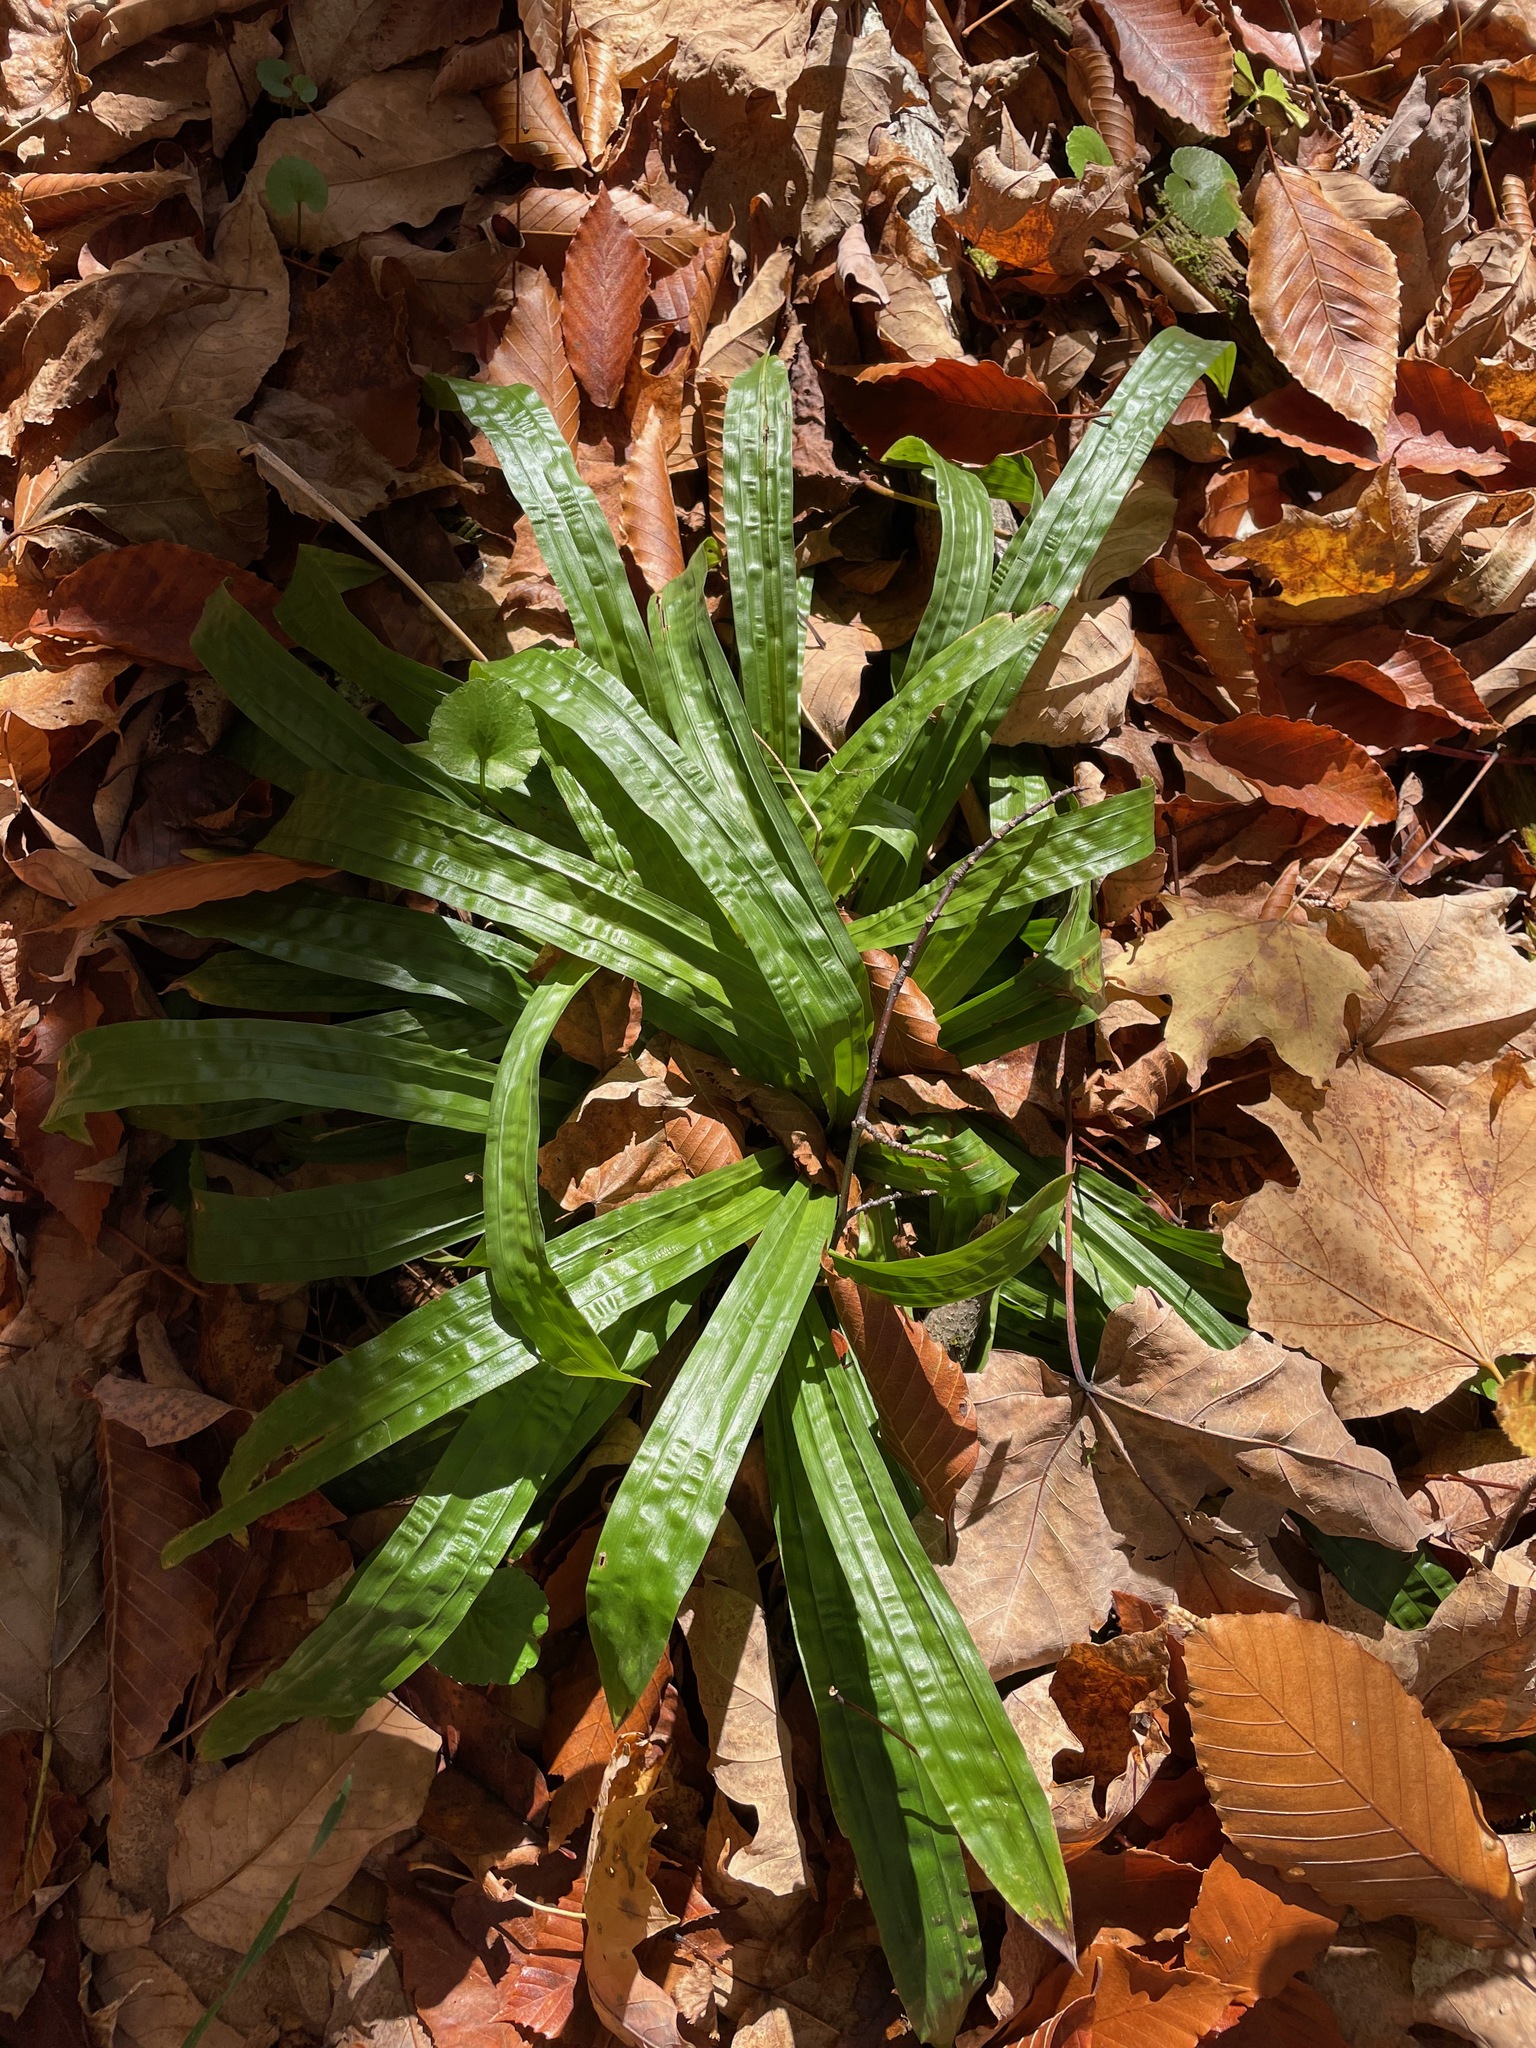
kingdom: Plantae
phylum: Tracheophyta
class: Liliopsida
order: Poales
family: Cyperaceae
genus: Carex
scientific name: Carex plantaginea
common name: Plantain-leaved sedge
